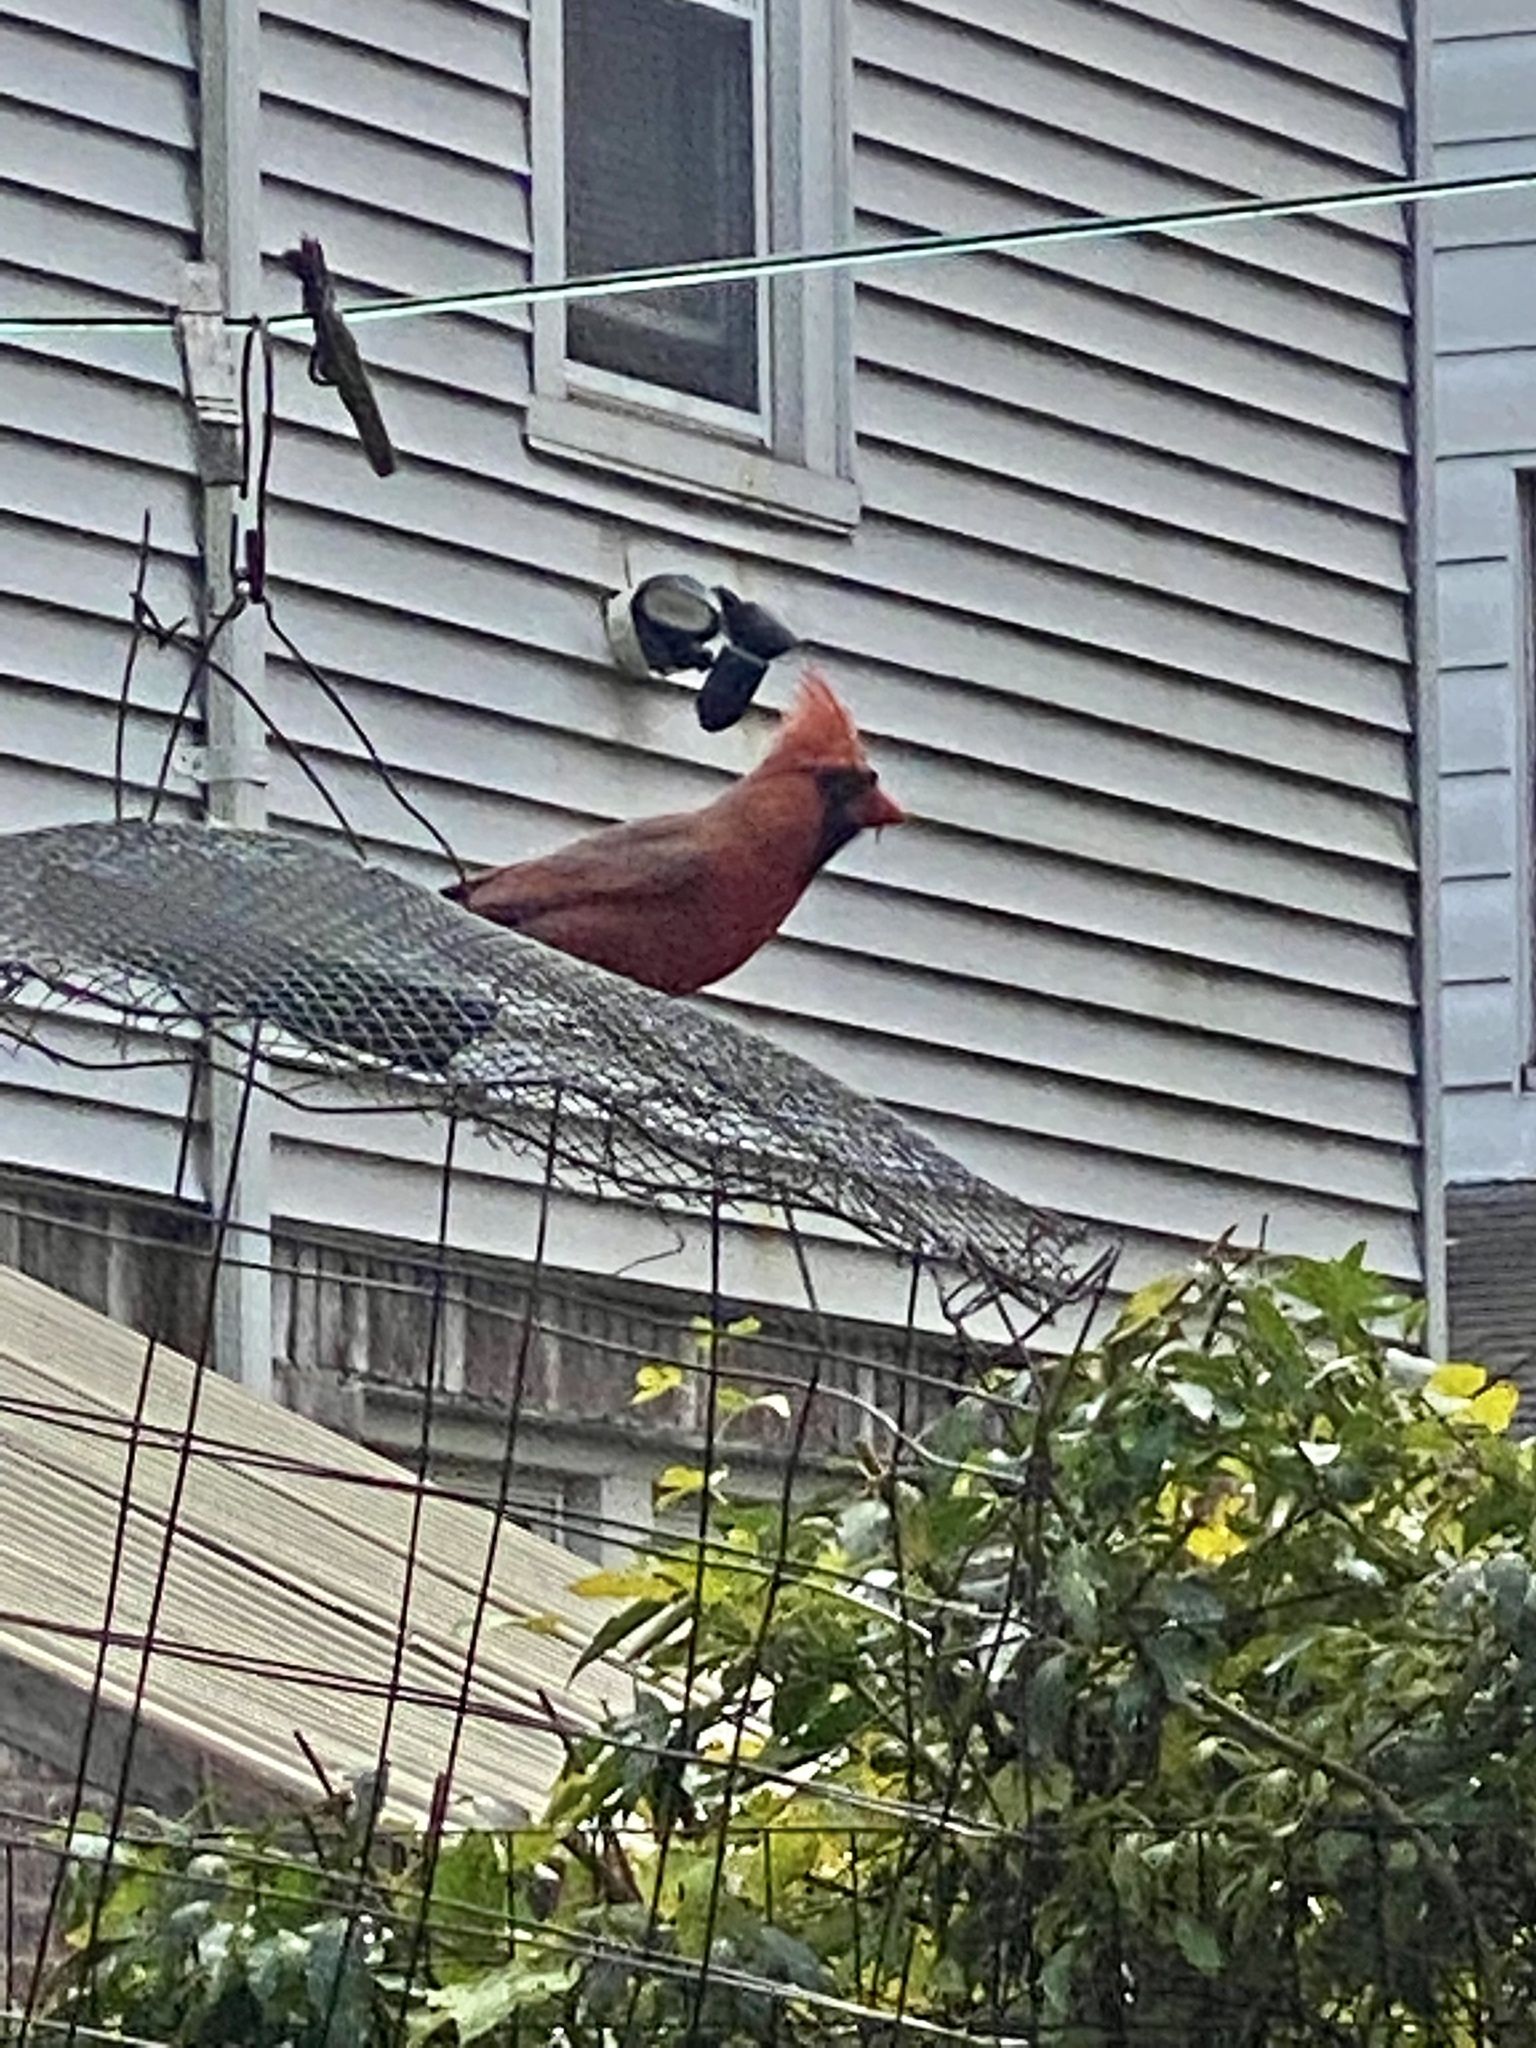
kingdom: Animalia
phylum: Chordata
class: Aves
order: Passeriformes
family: Cardinalidae
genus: Cardinalis
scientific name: Cardinalis cardinalis
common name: Northern cardinal
